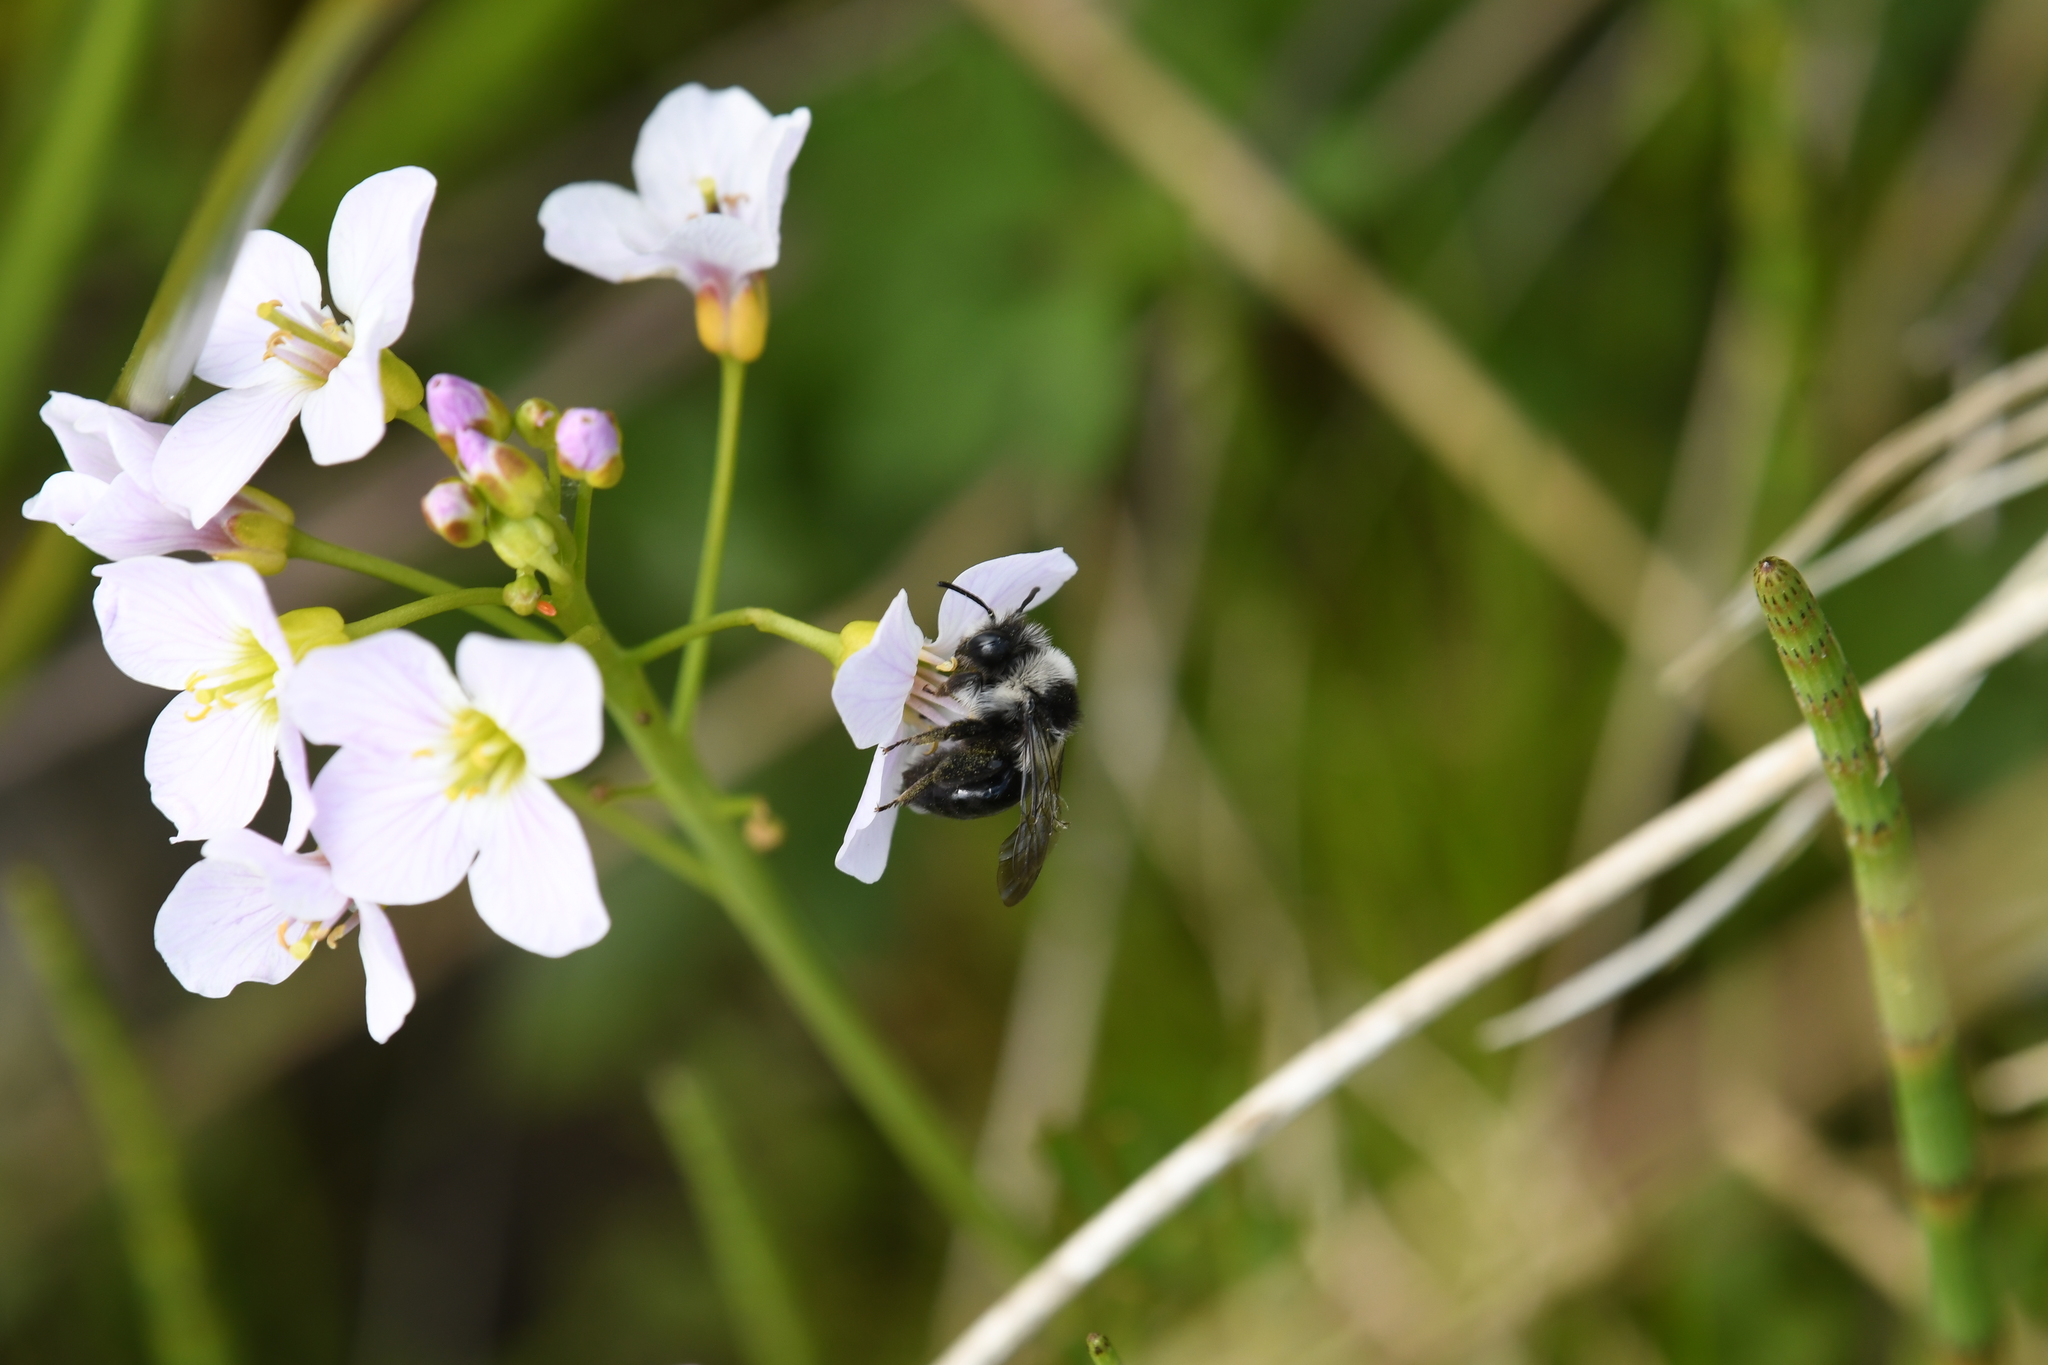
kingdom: Animalia
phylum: Arthropoda
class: Insecta
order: Hymenoptera
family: Andrenidae
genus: Andrena
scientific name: Andrena cineraria
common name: Ashy mining bee
